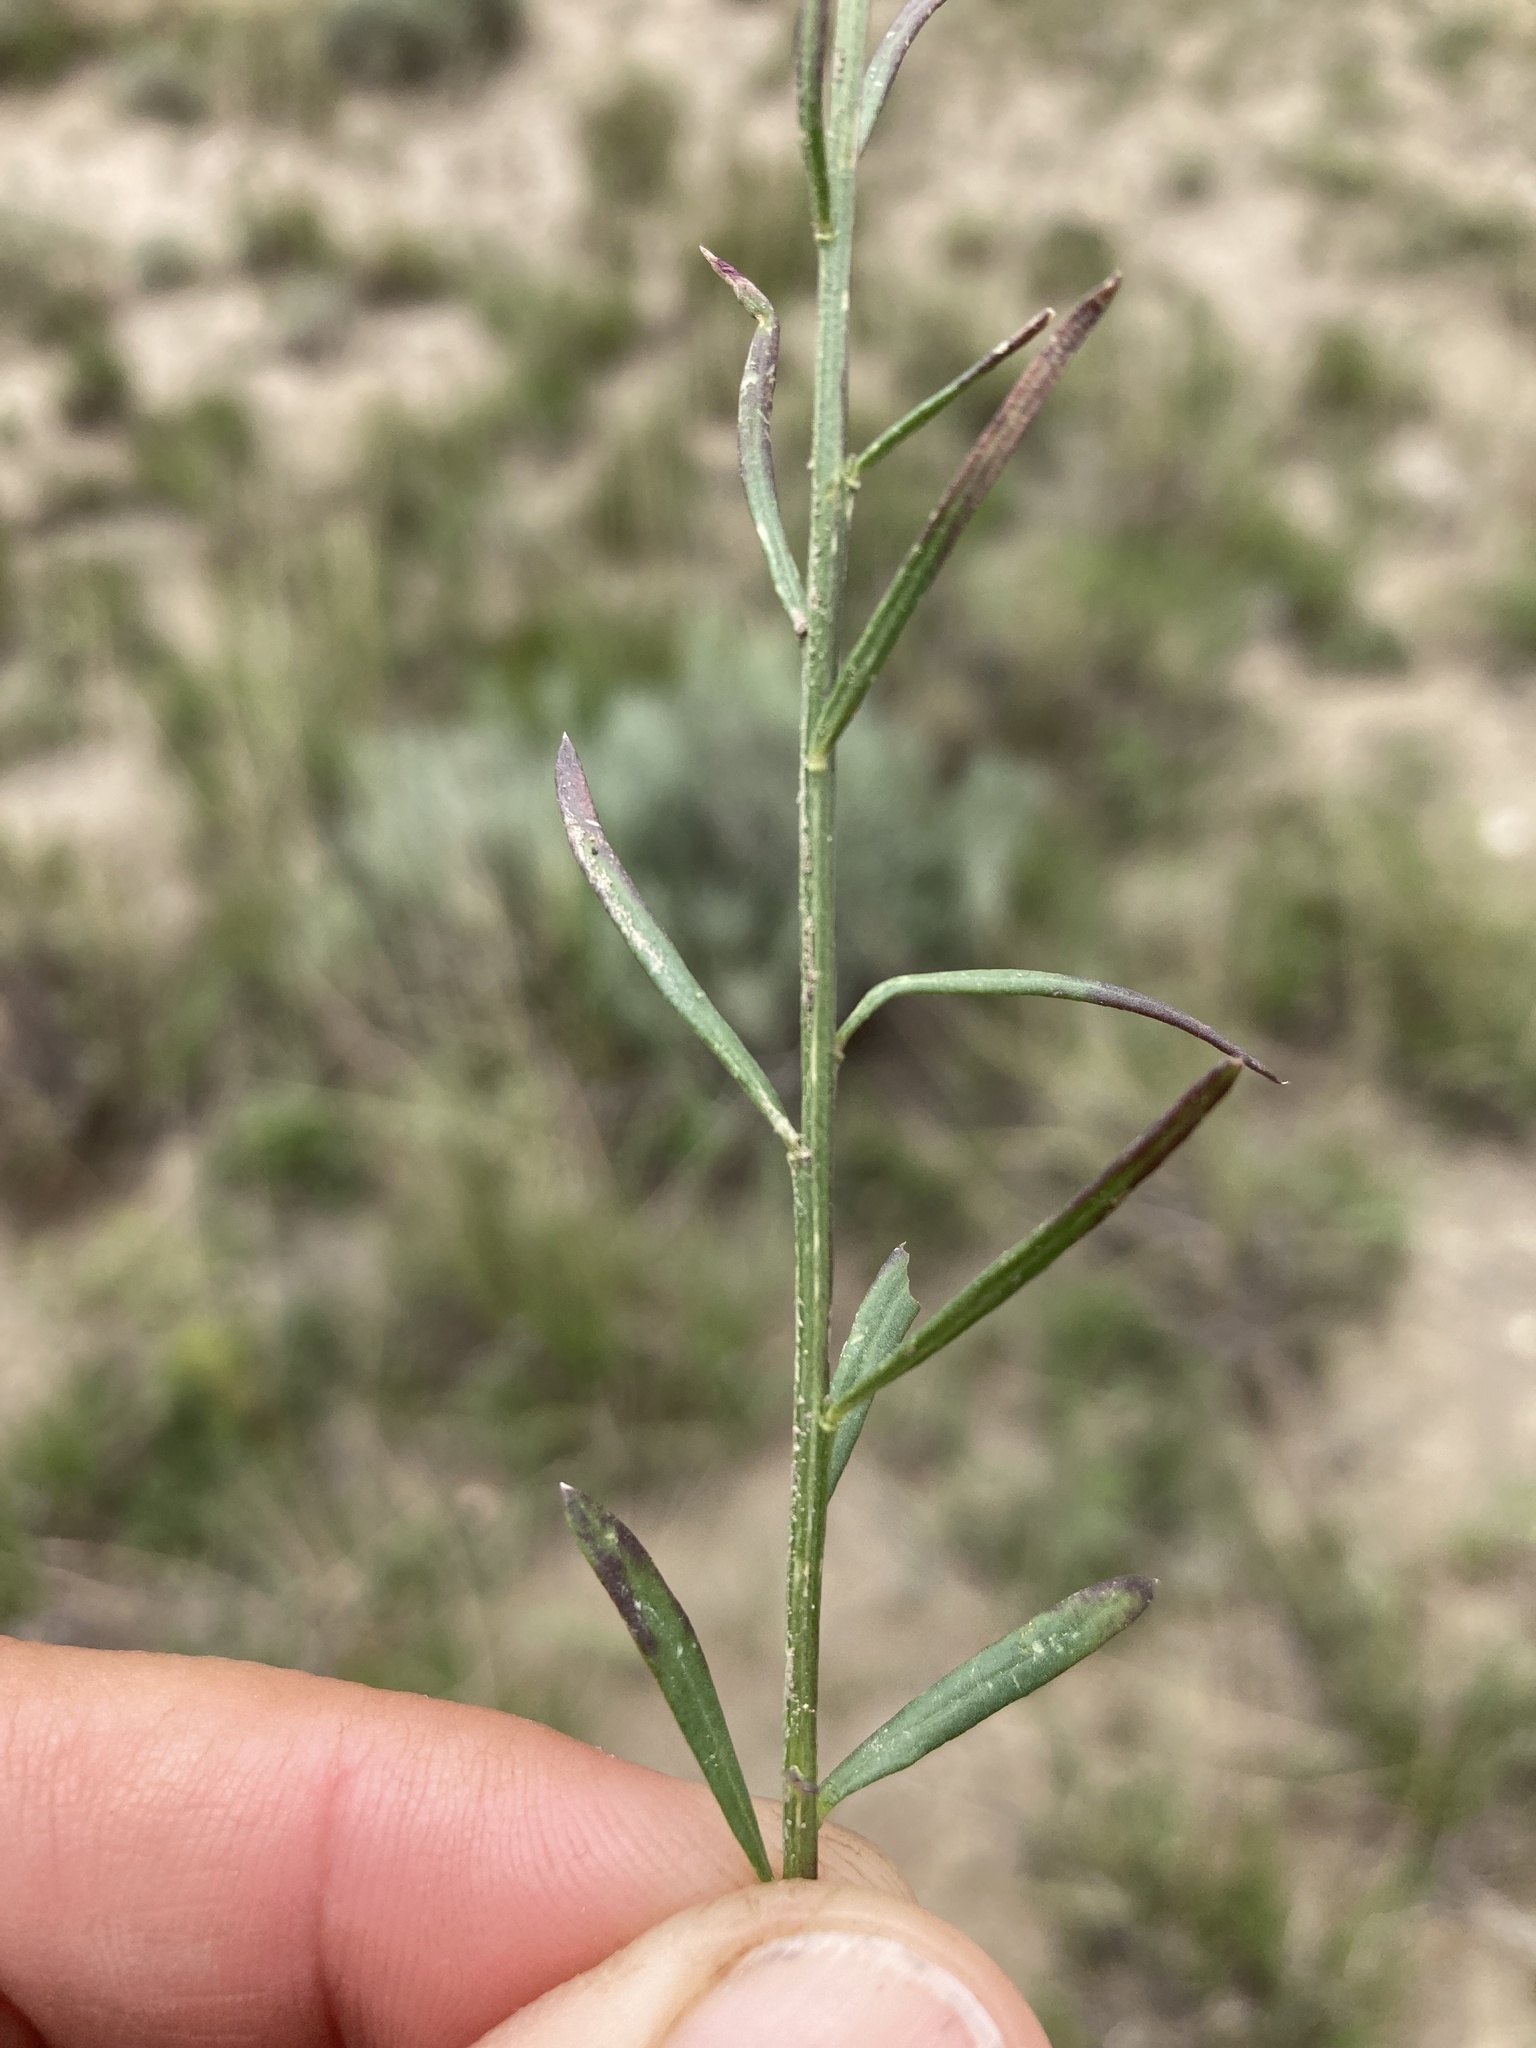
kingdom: Plantae
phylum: Tracheophyta
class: Magnoliopsida
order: Fabales
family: Polygalaceae
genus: Polygala
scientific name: Polygala alba
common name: White milkwort
